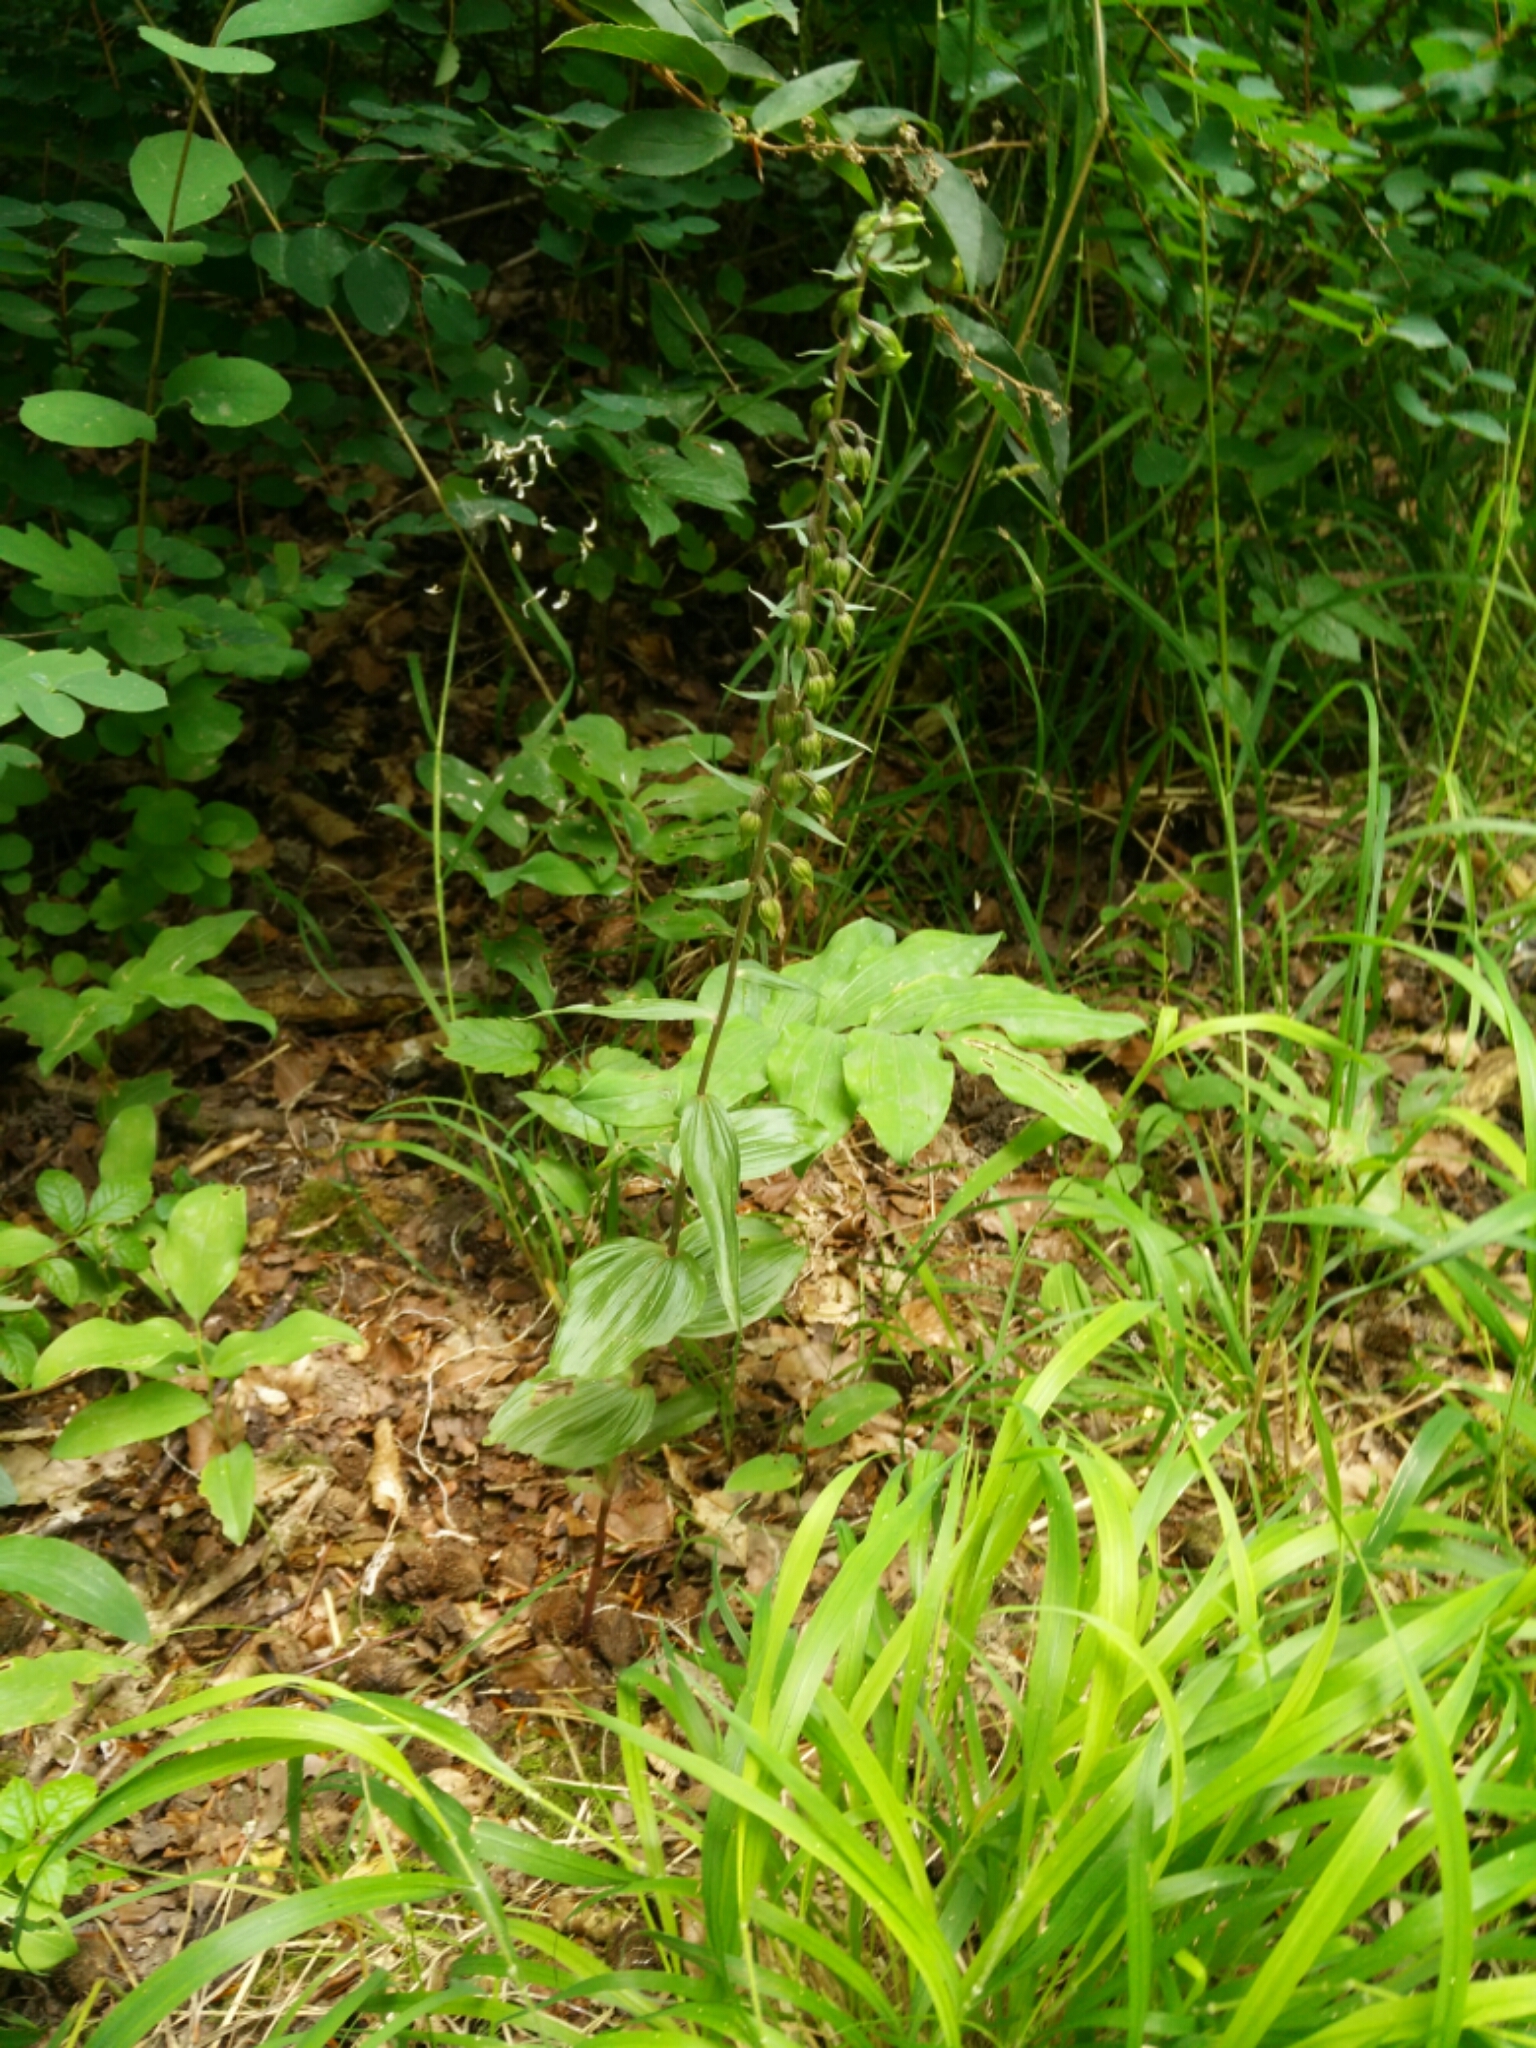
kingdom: Plantae
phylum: Tracheophyta
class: Liliopsida
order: Asparagales
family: Orchidaceae
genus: Epipactis
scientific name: Epipactis helleborine
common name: Broad-leaved helleborine
